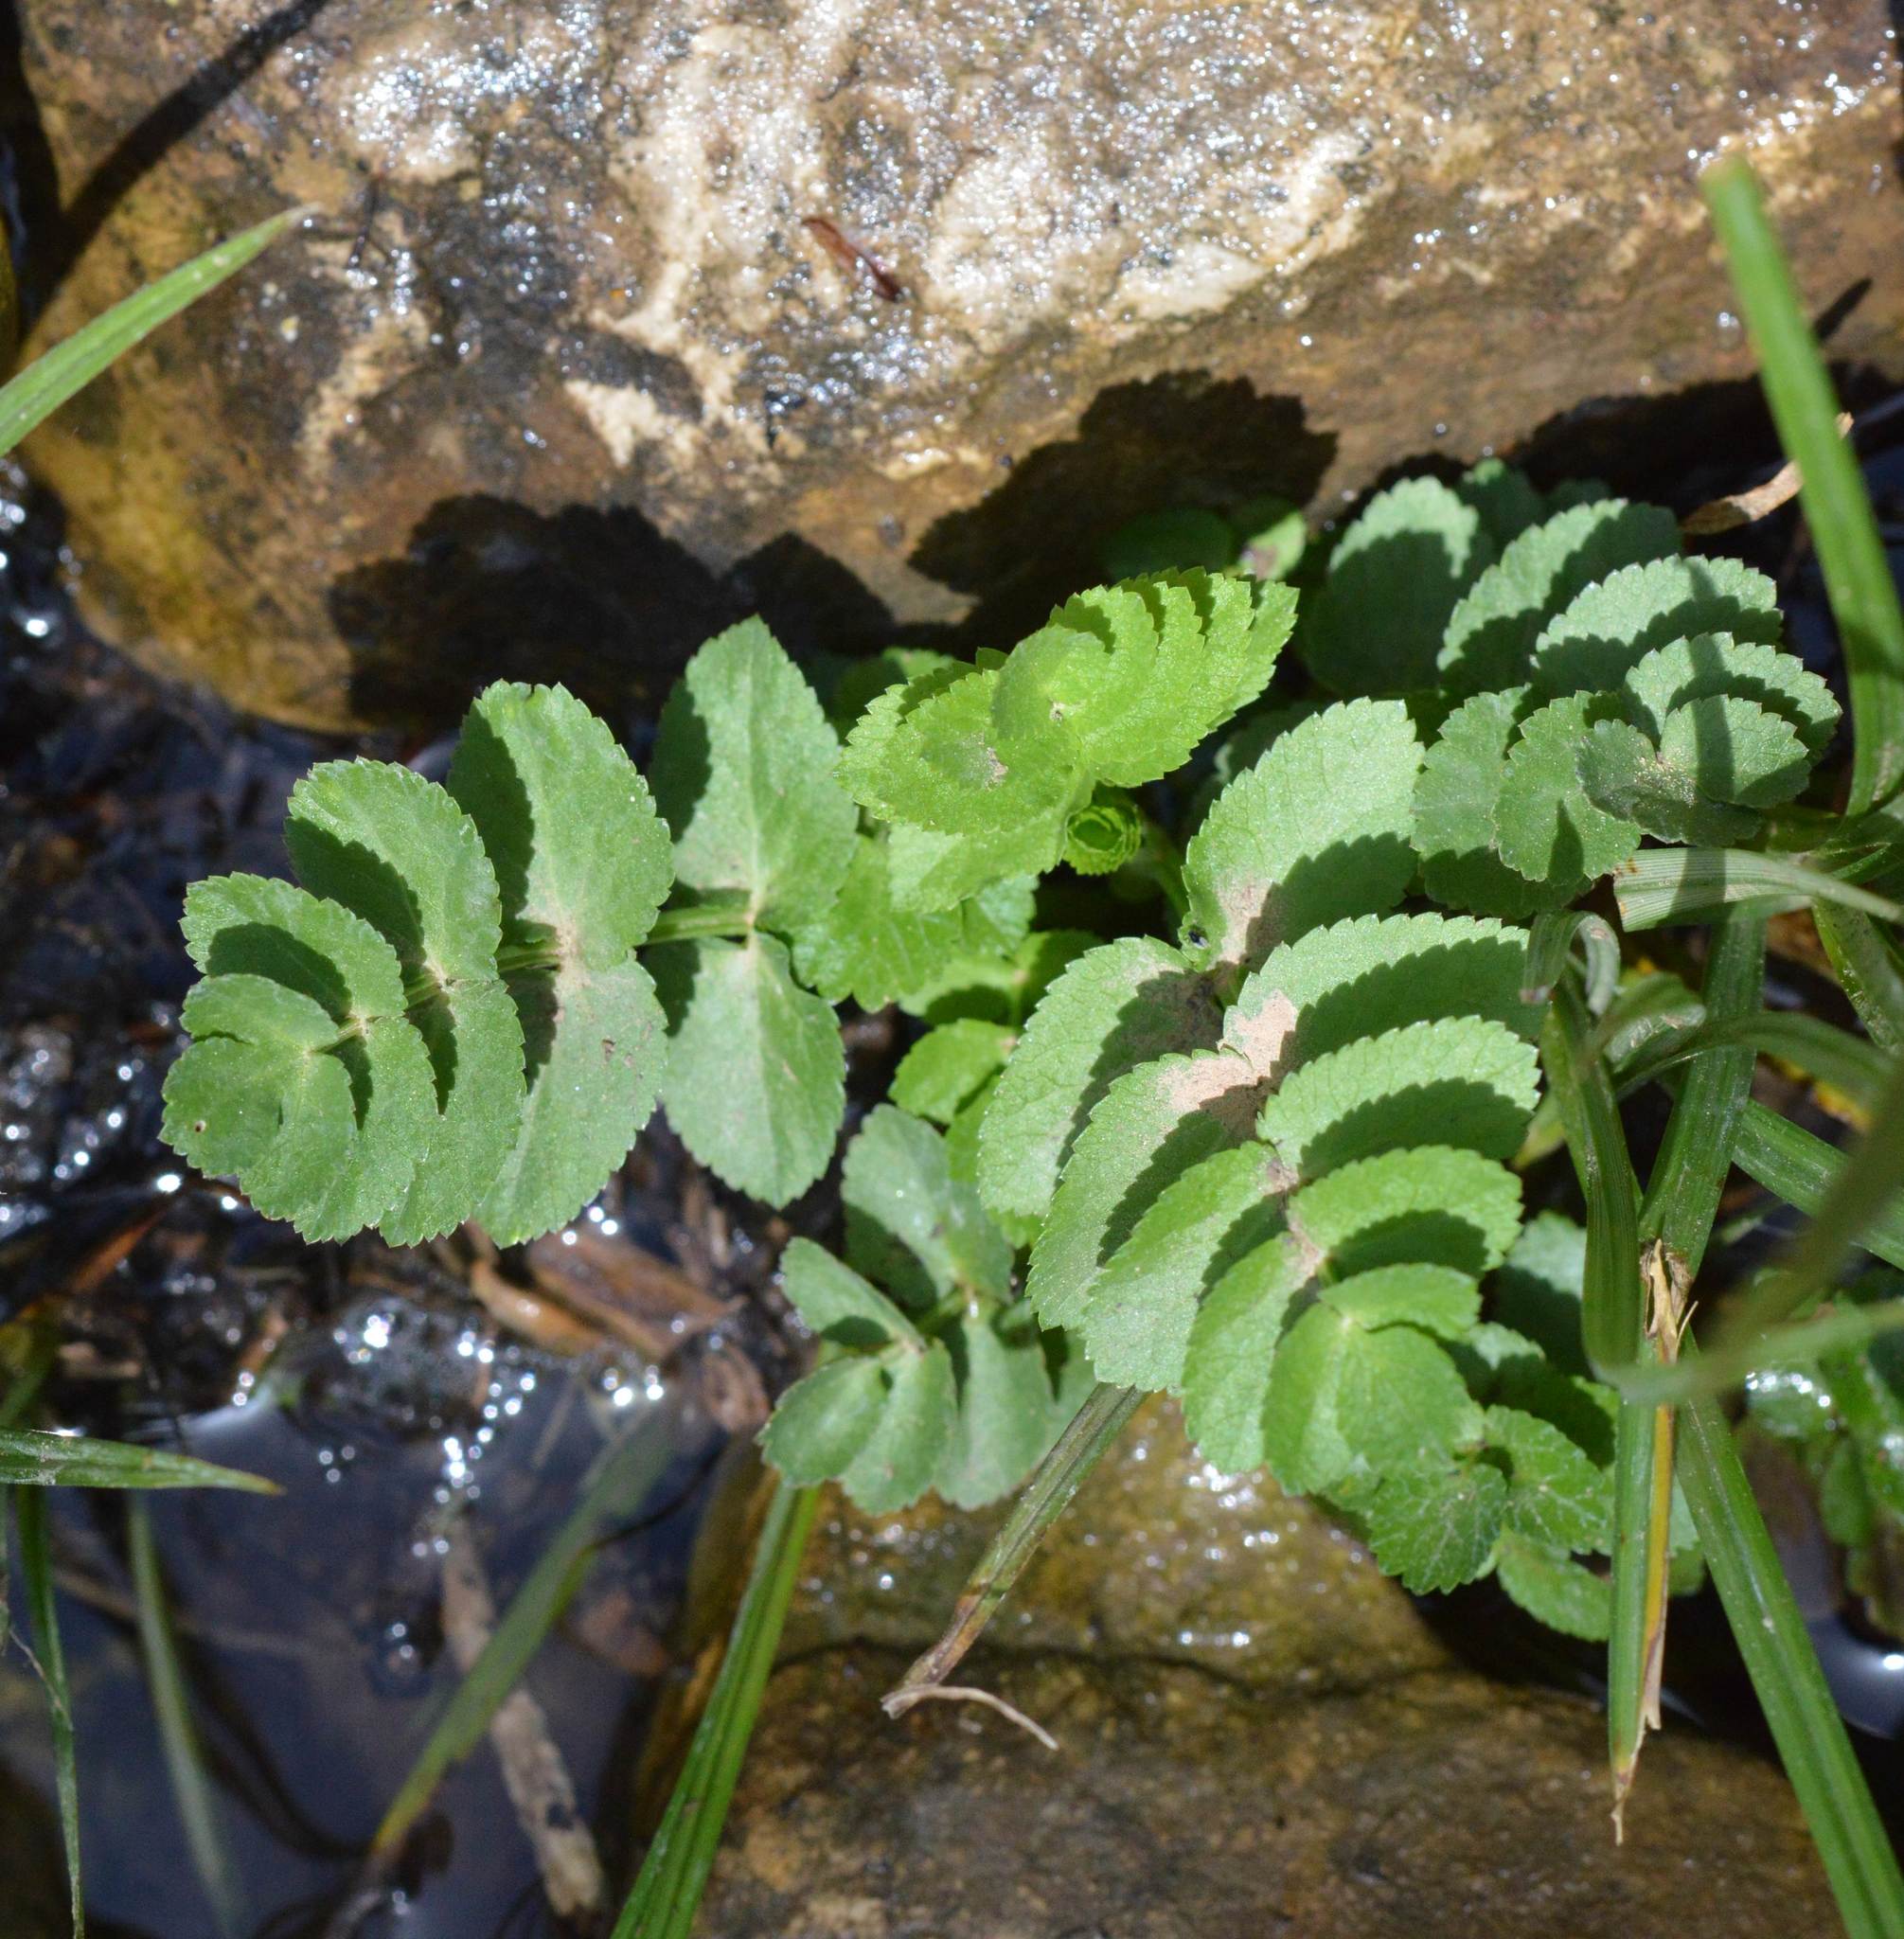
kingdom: Plantae
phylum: Tracheophyta
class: Magnoliopsida
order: Apiales
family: Apiaceae
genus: Helosciadium
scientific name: Helosciadium nodiflorum
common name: Fool's-watercress
